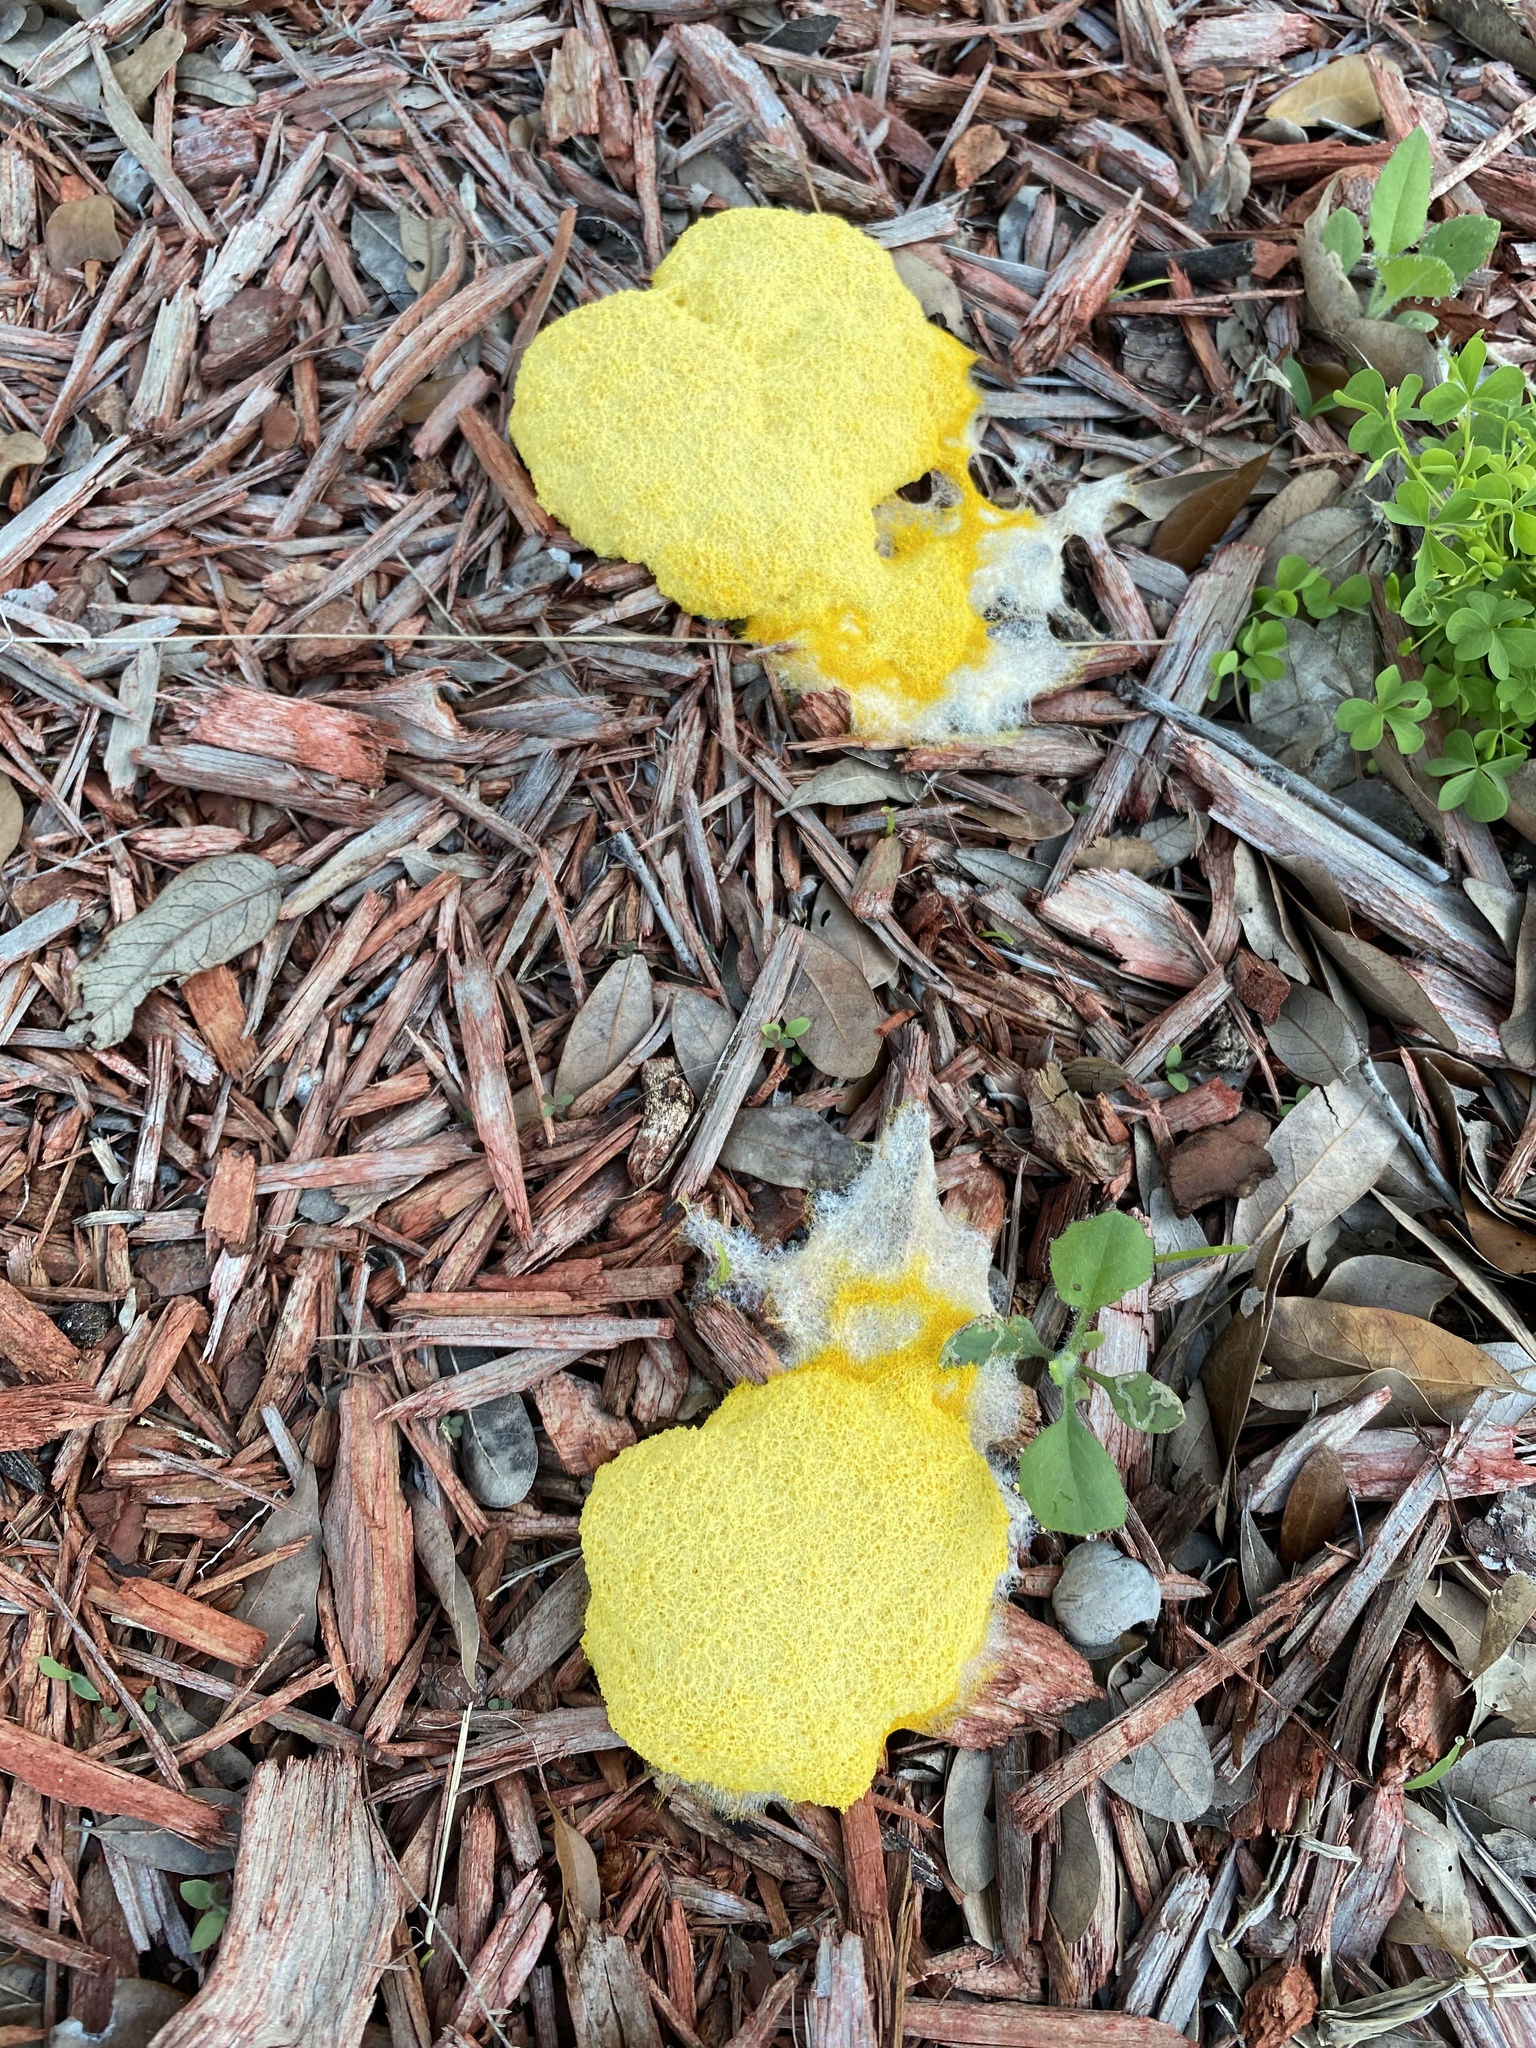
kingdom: Protozoa
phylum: Mycetozoa
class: Myxomycetes
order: Physarales
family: Physaraceae
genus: Fuligo
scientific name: Fuligo septica
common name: Dog vomit slime mold
